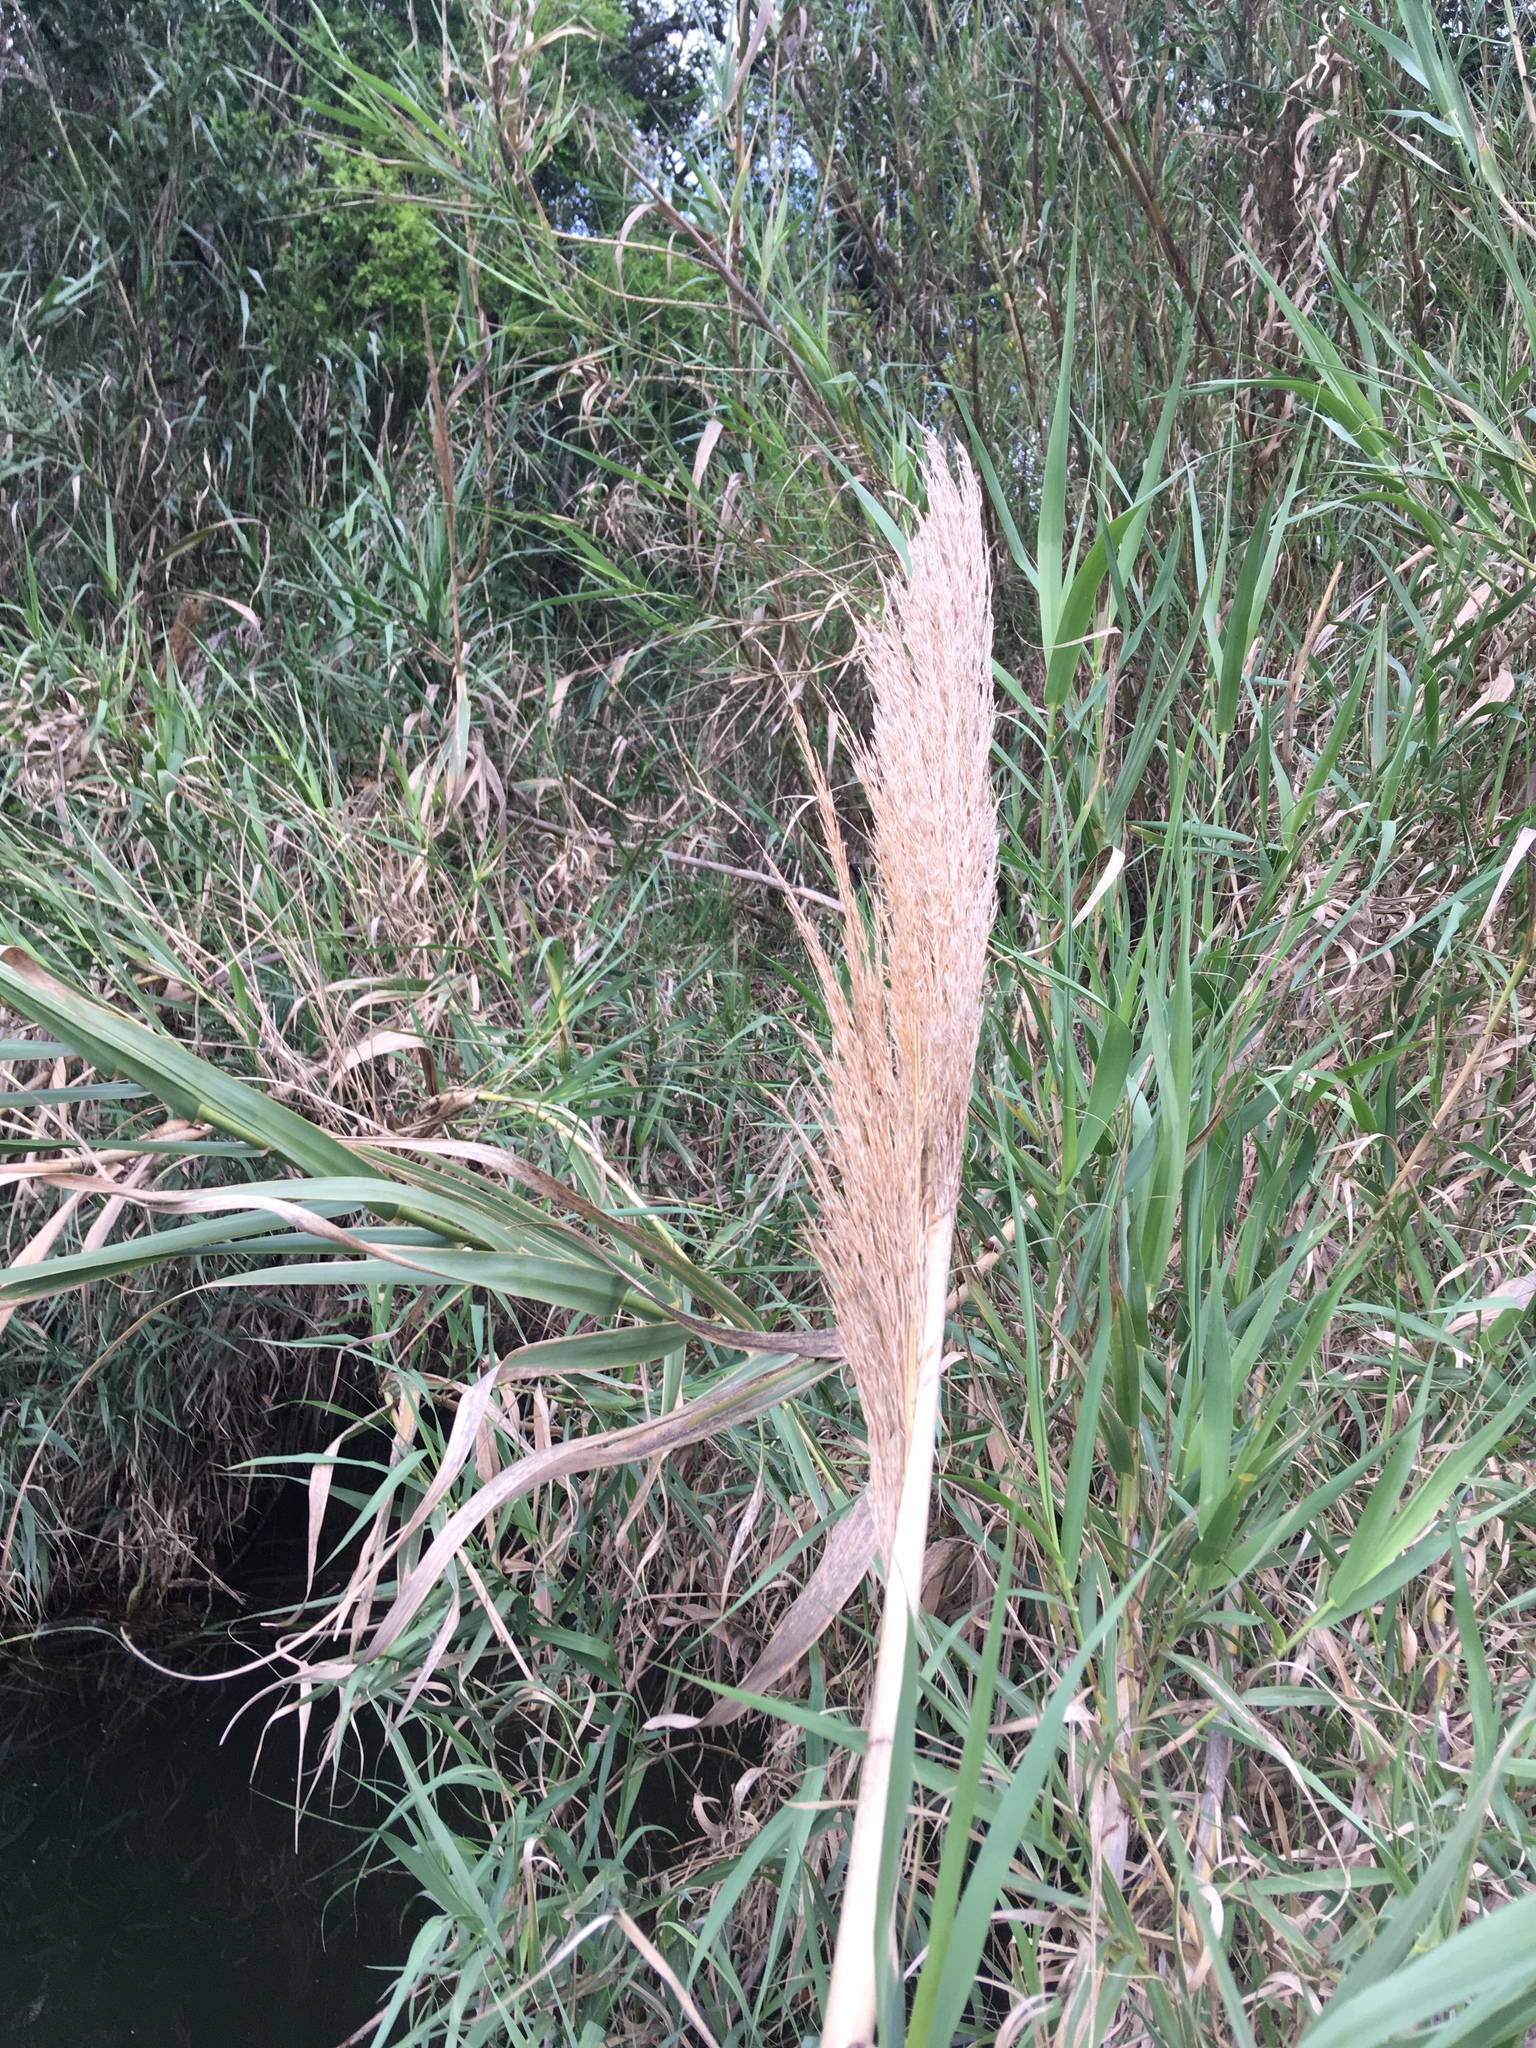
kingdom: Plantae
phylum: Tracheophyta
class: Liliopsida
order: Poales
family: Poaceae
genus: Arundo
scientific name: Arundo donax
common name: Giant reed
